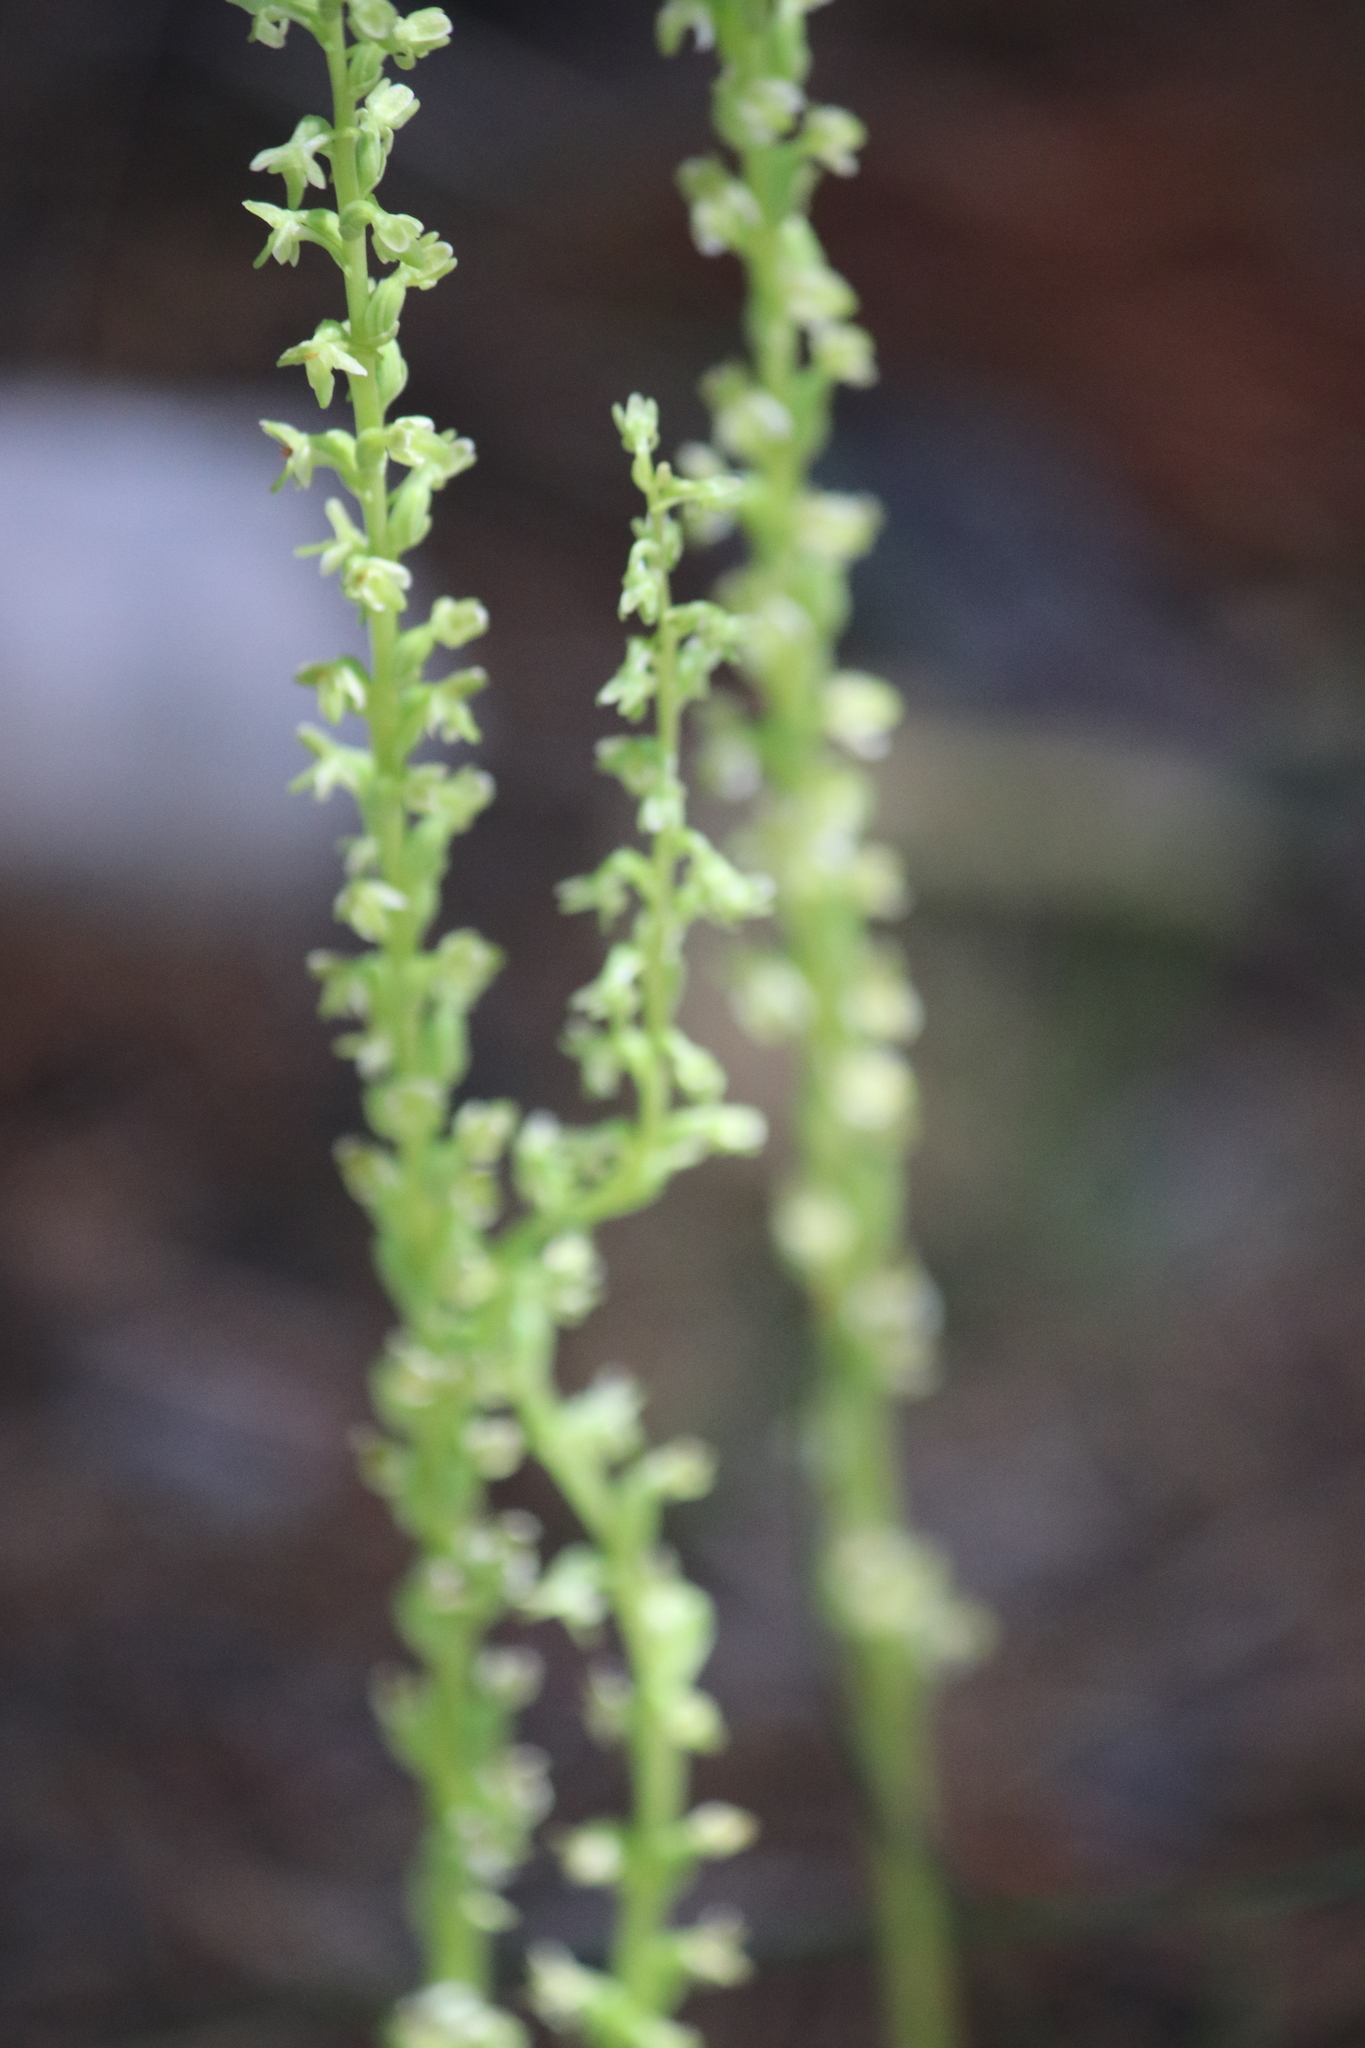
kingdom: Plantae
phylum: Tracheophyta
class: Liliopsida
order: Asparagales
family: Orchidaceae
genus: Platanthera
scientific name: Platanthera unalascensis
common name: Alaska bog orchid
